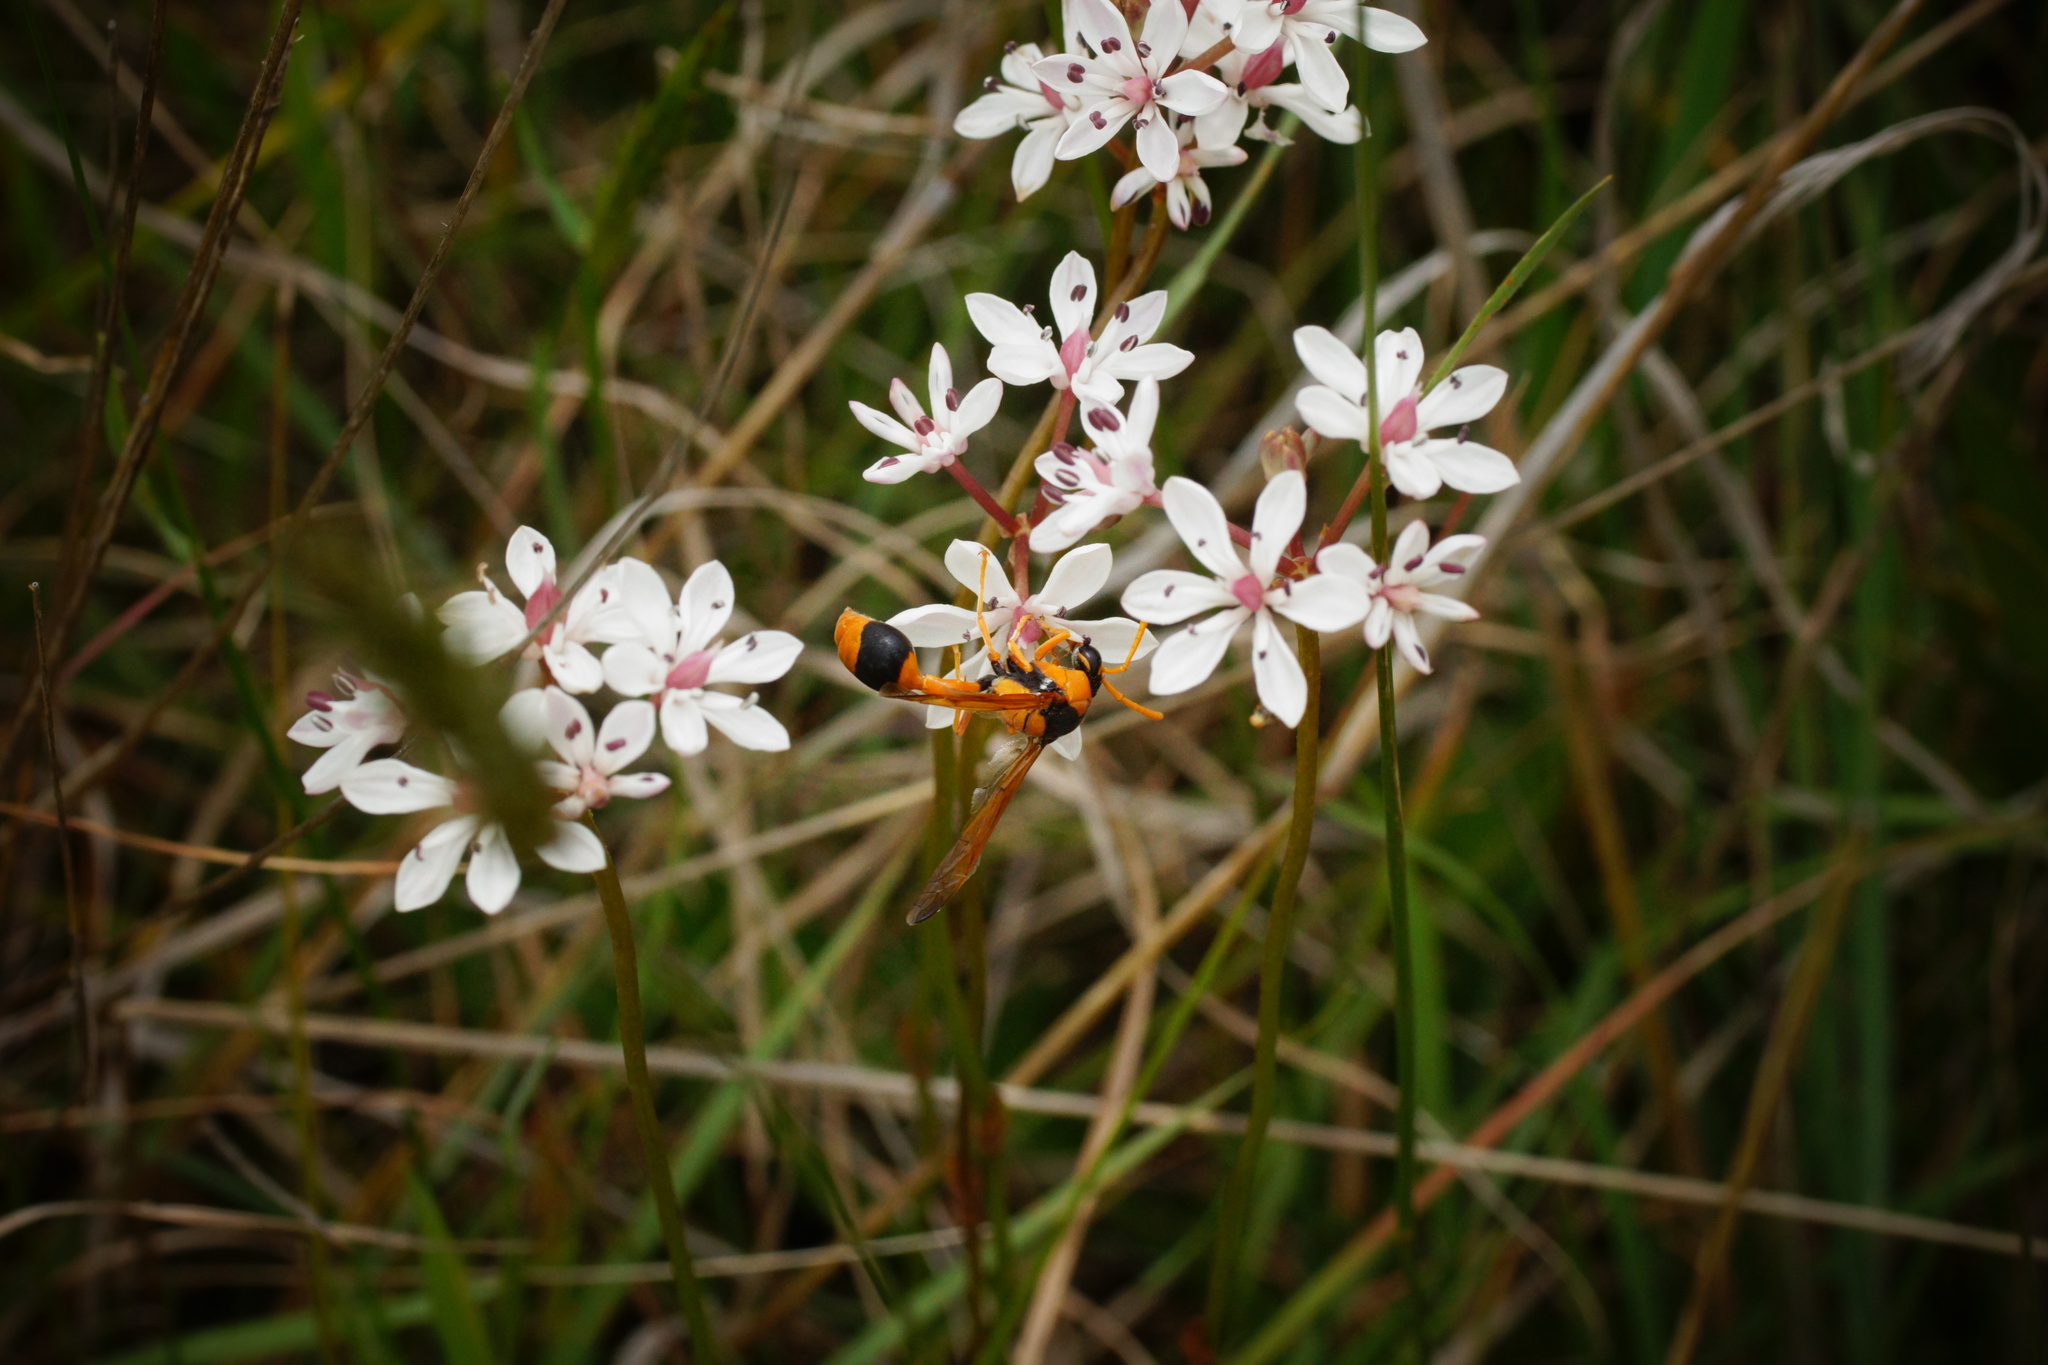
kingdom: Animalia
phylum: Arthropoda
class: Insecta
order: Hymenoptera
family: Eumenidae
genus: Delta
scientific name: Delta bicinctum
